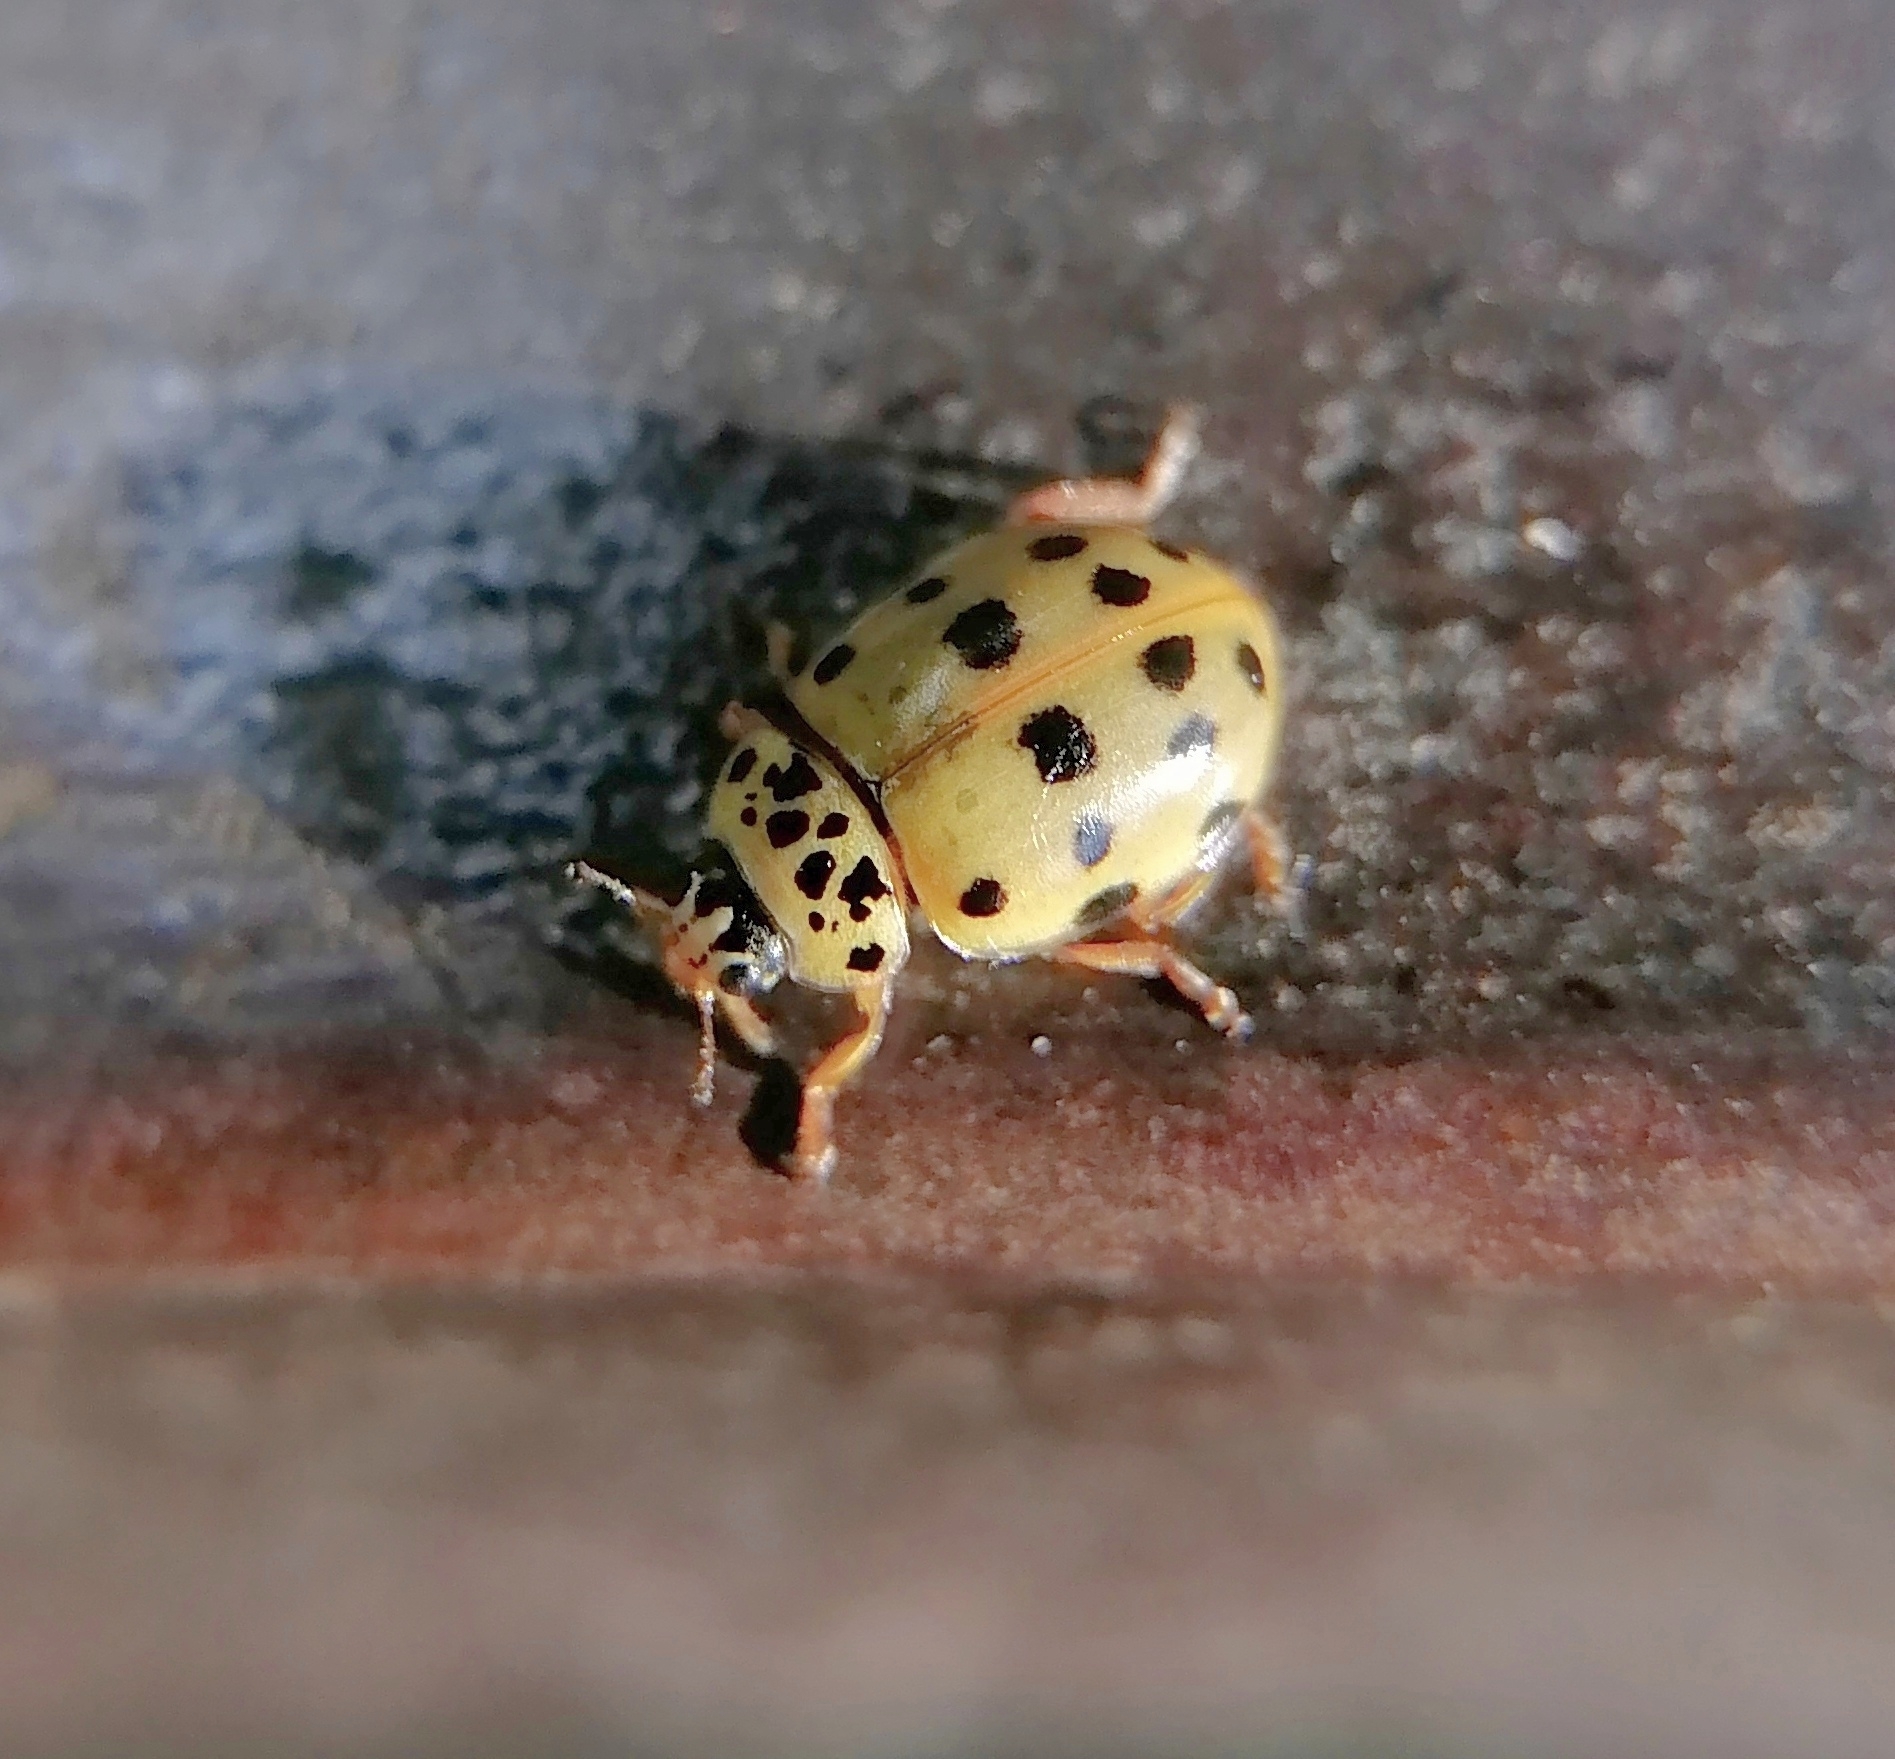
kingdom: Animalia
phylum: Arthropoda
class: Insecta
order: Coleoptera
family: Coccinellidae
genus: Harmonia
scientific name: Harmonia quadripunctata
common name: Cream-streaked ladybird
